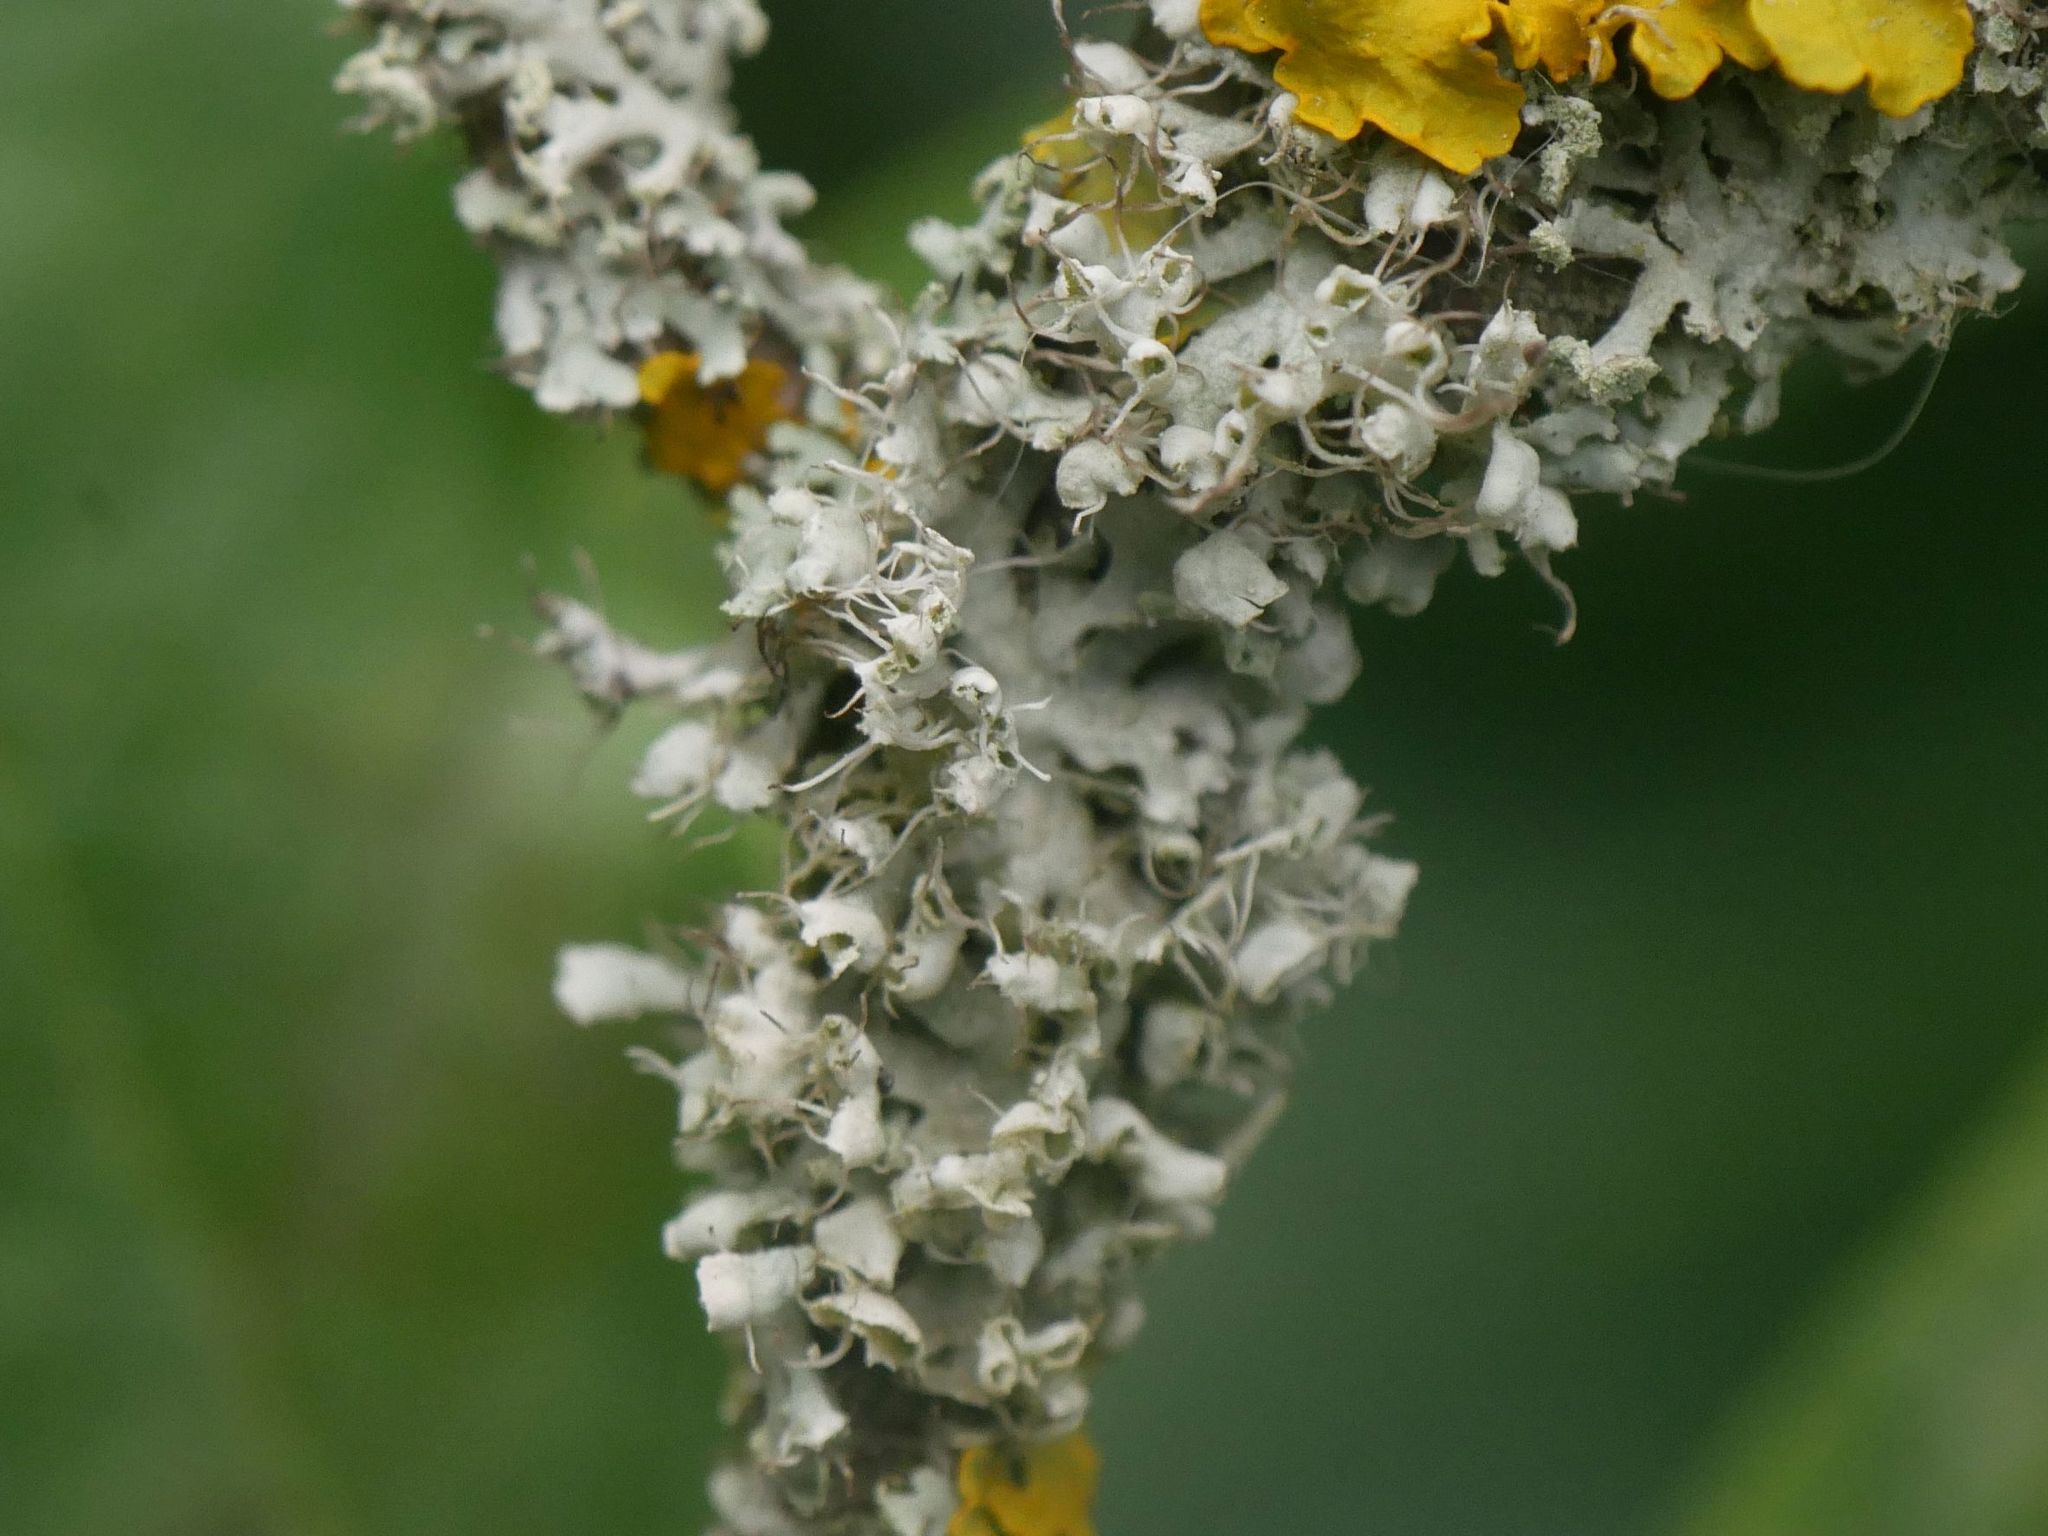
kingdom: Fungi
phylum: Ascomycota
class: Lecanoromycetes
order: Caliciales
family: Physciaceae
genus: Physcia
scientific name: Physcia adscendens
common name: Hooded rosette lichen
